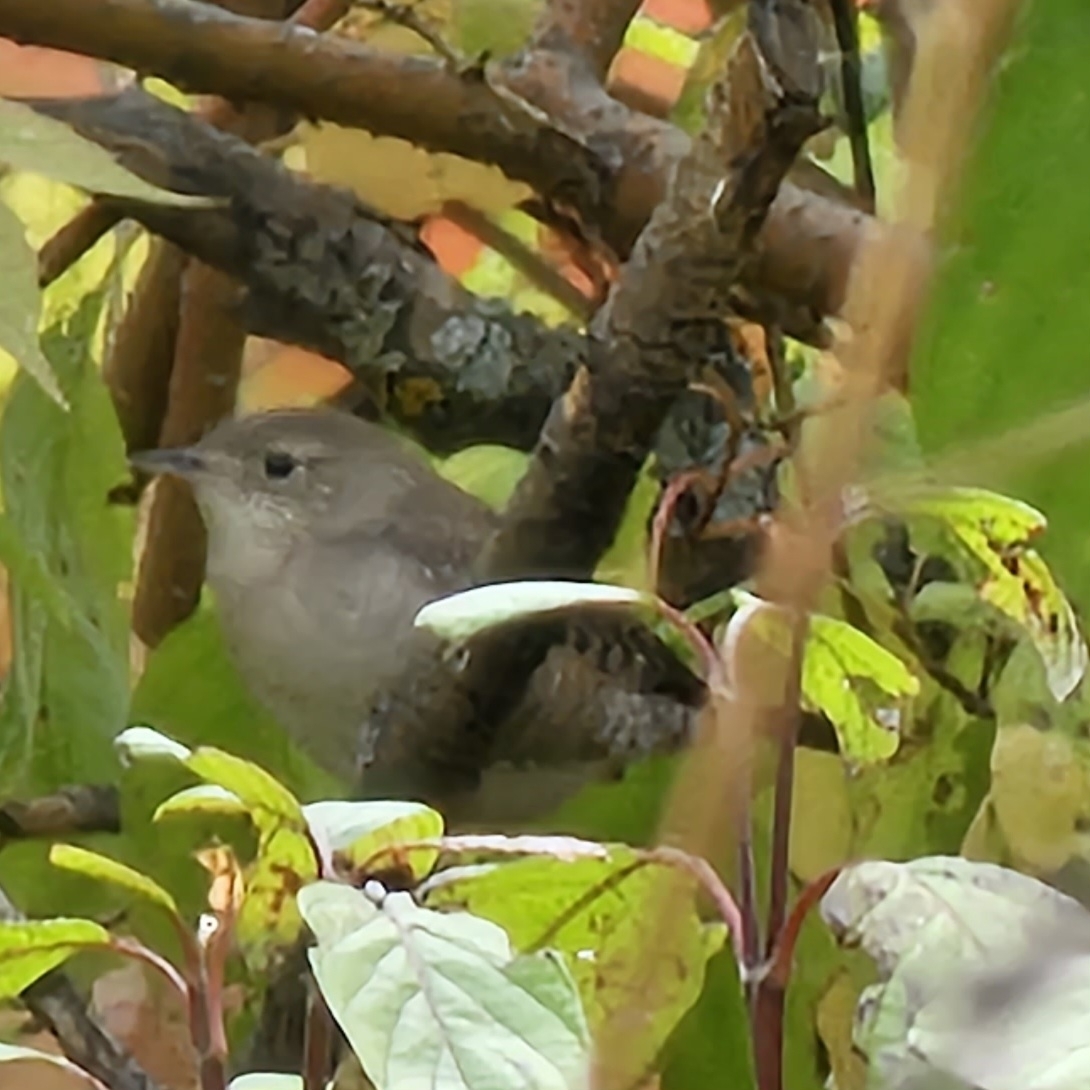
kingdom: Animalia
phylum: Chordata
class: Aves
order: Passeriformes
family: Troglodytidae
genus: Troglodytes
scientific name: Troglodytes aedon
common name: House wren
